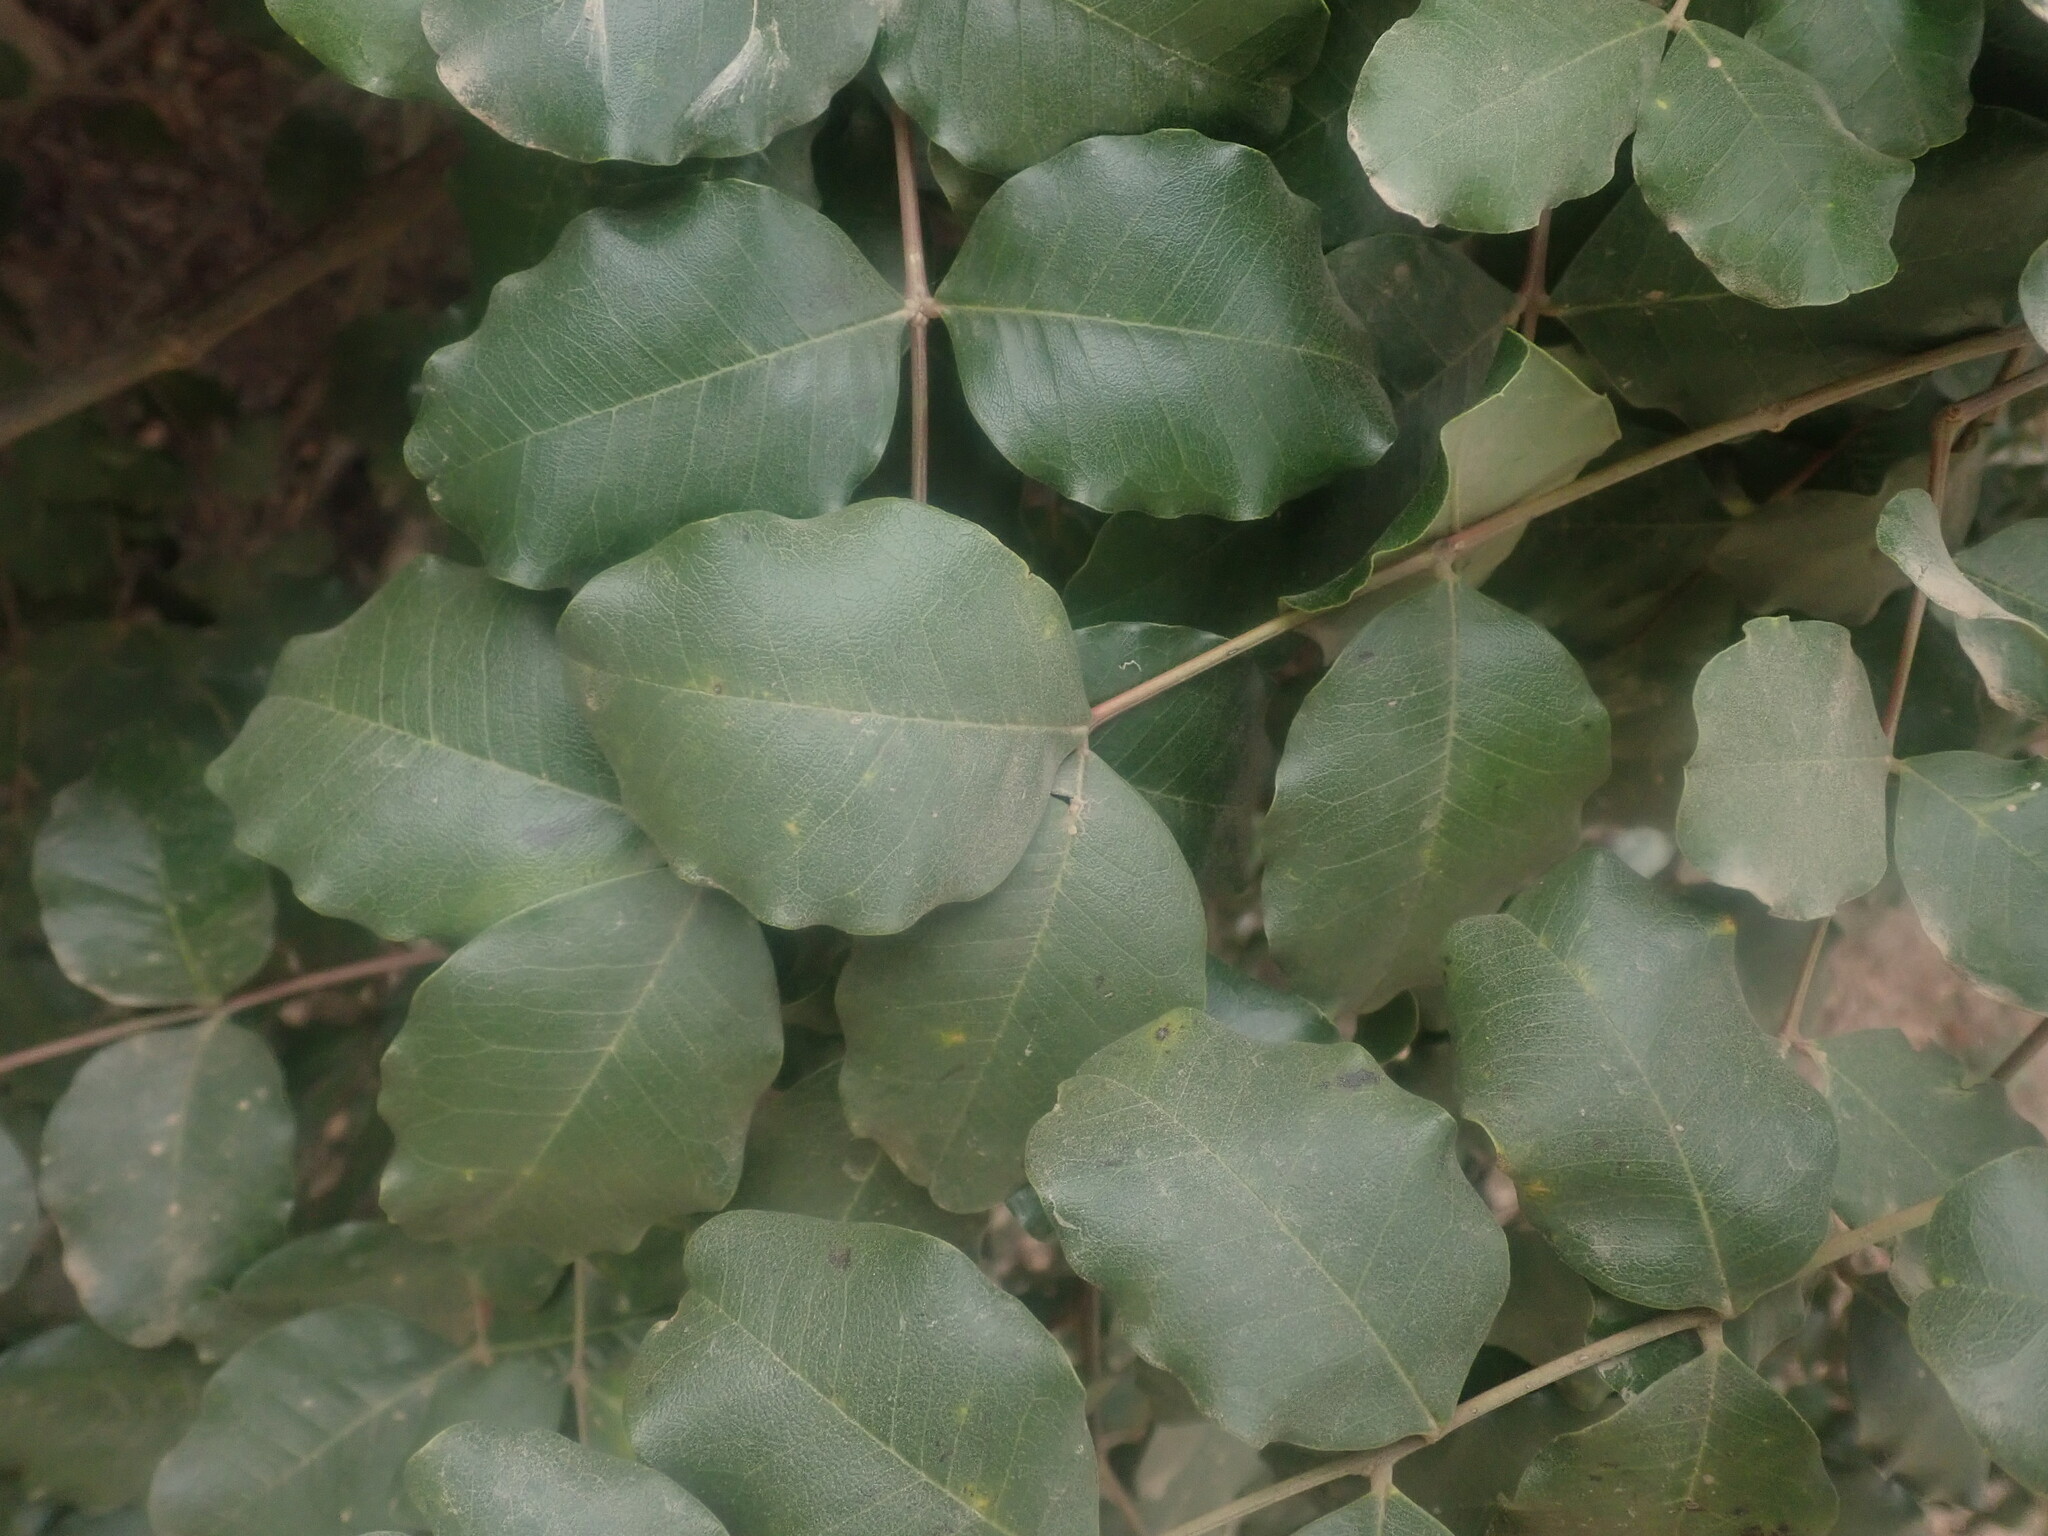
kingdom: Plantae
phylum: Tracheophyta
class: Magnoliopsida
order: Fabales
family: Fabaceae
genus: Ceratonia
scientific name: Ceratonia siliqua
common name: Carob
